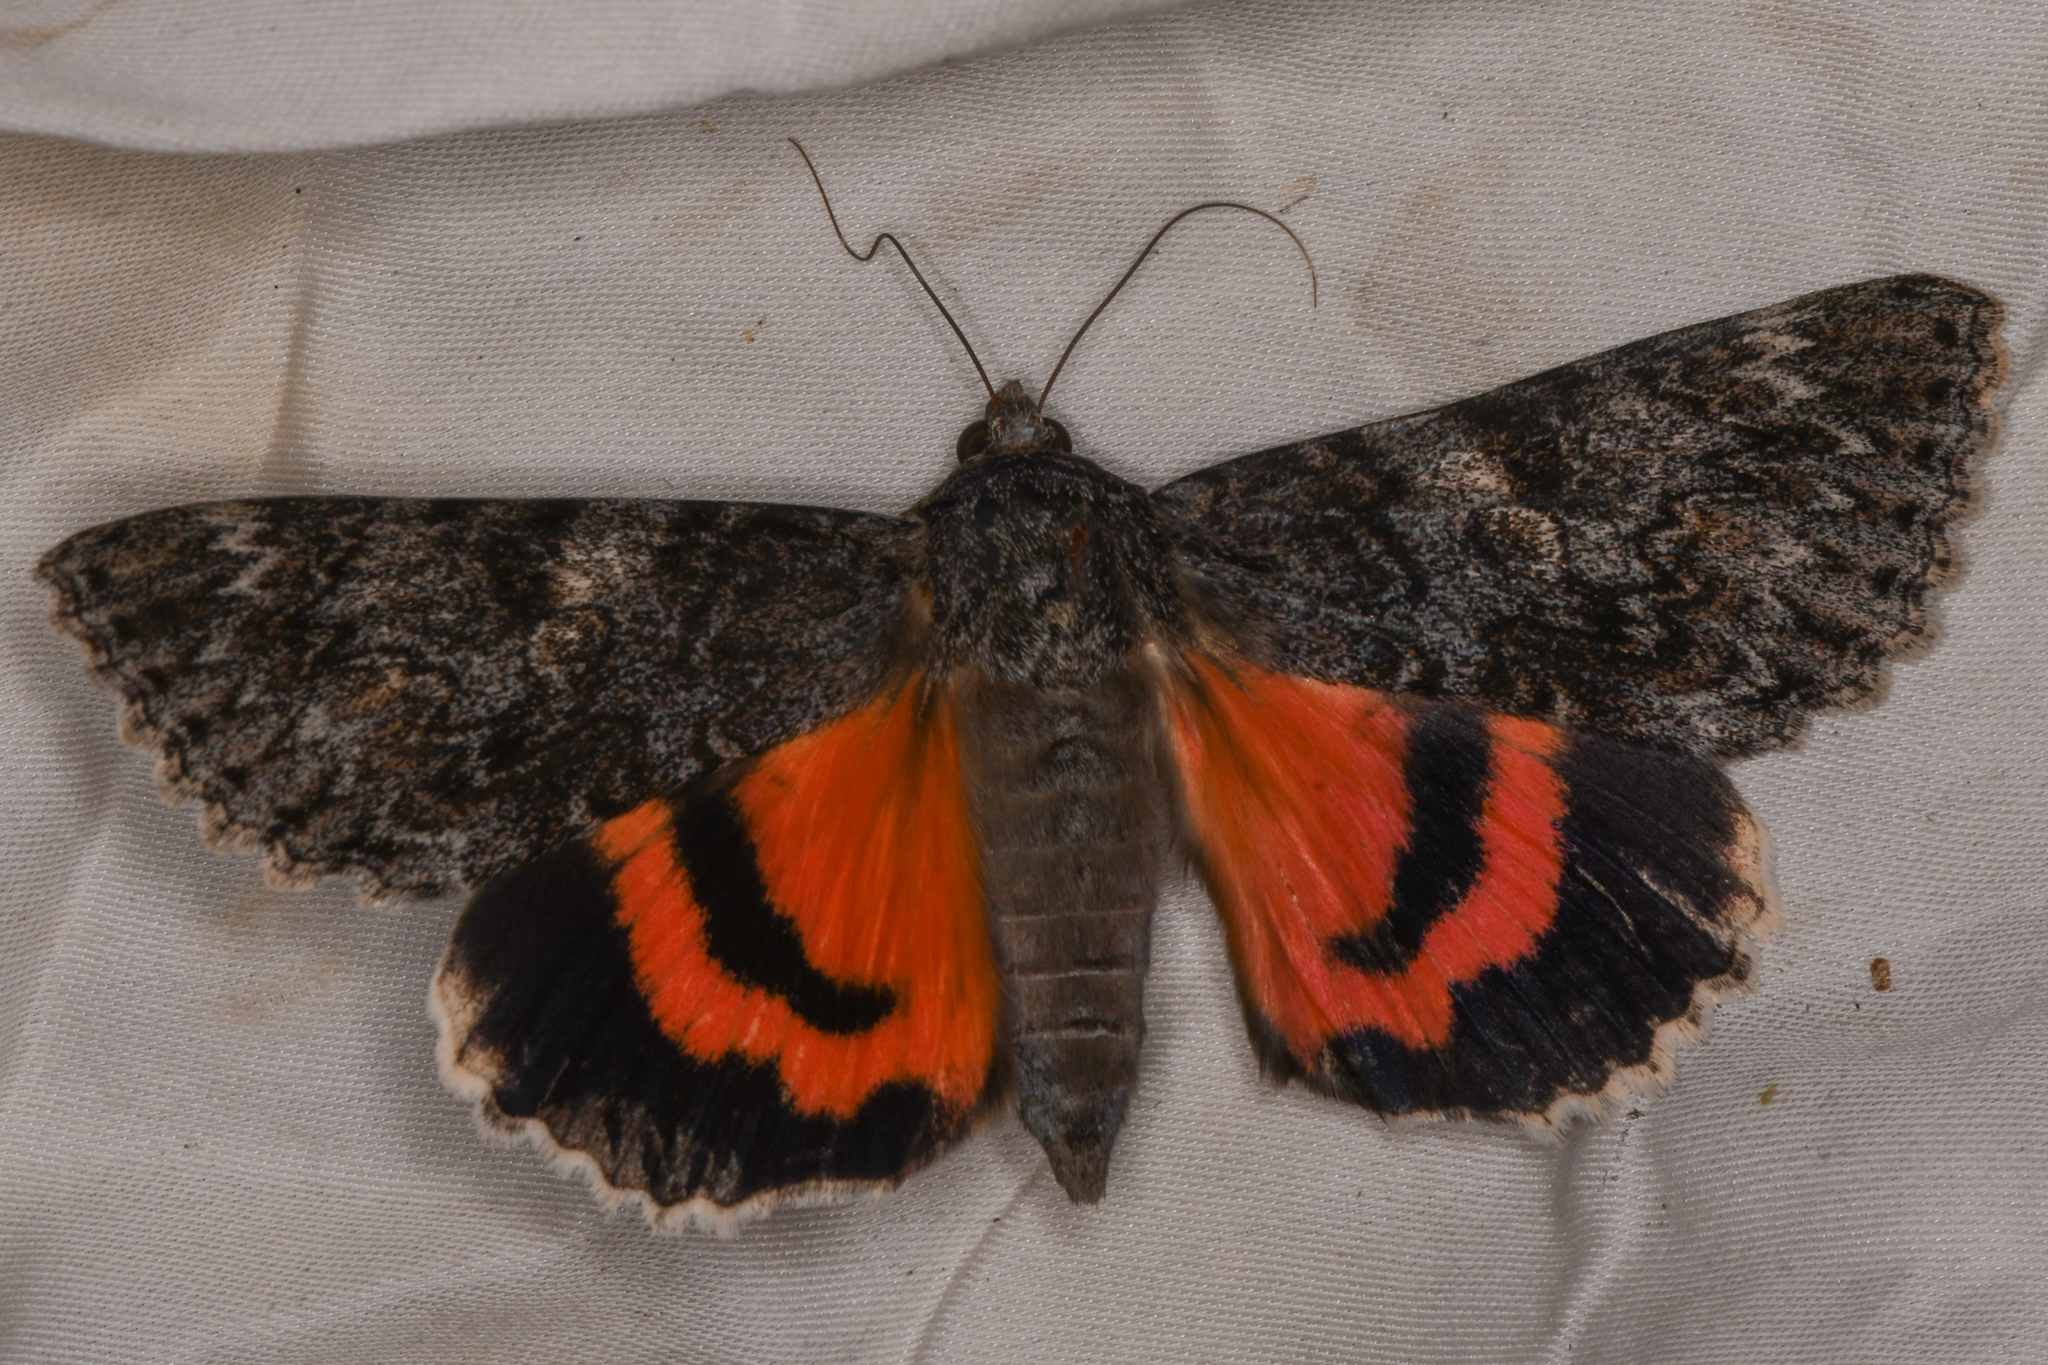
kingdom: Animalia
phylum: Arthropoda
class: Insecta
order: Lepidoptera
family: Erebidae
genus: Catocala
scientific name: Catocala californica
